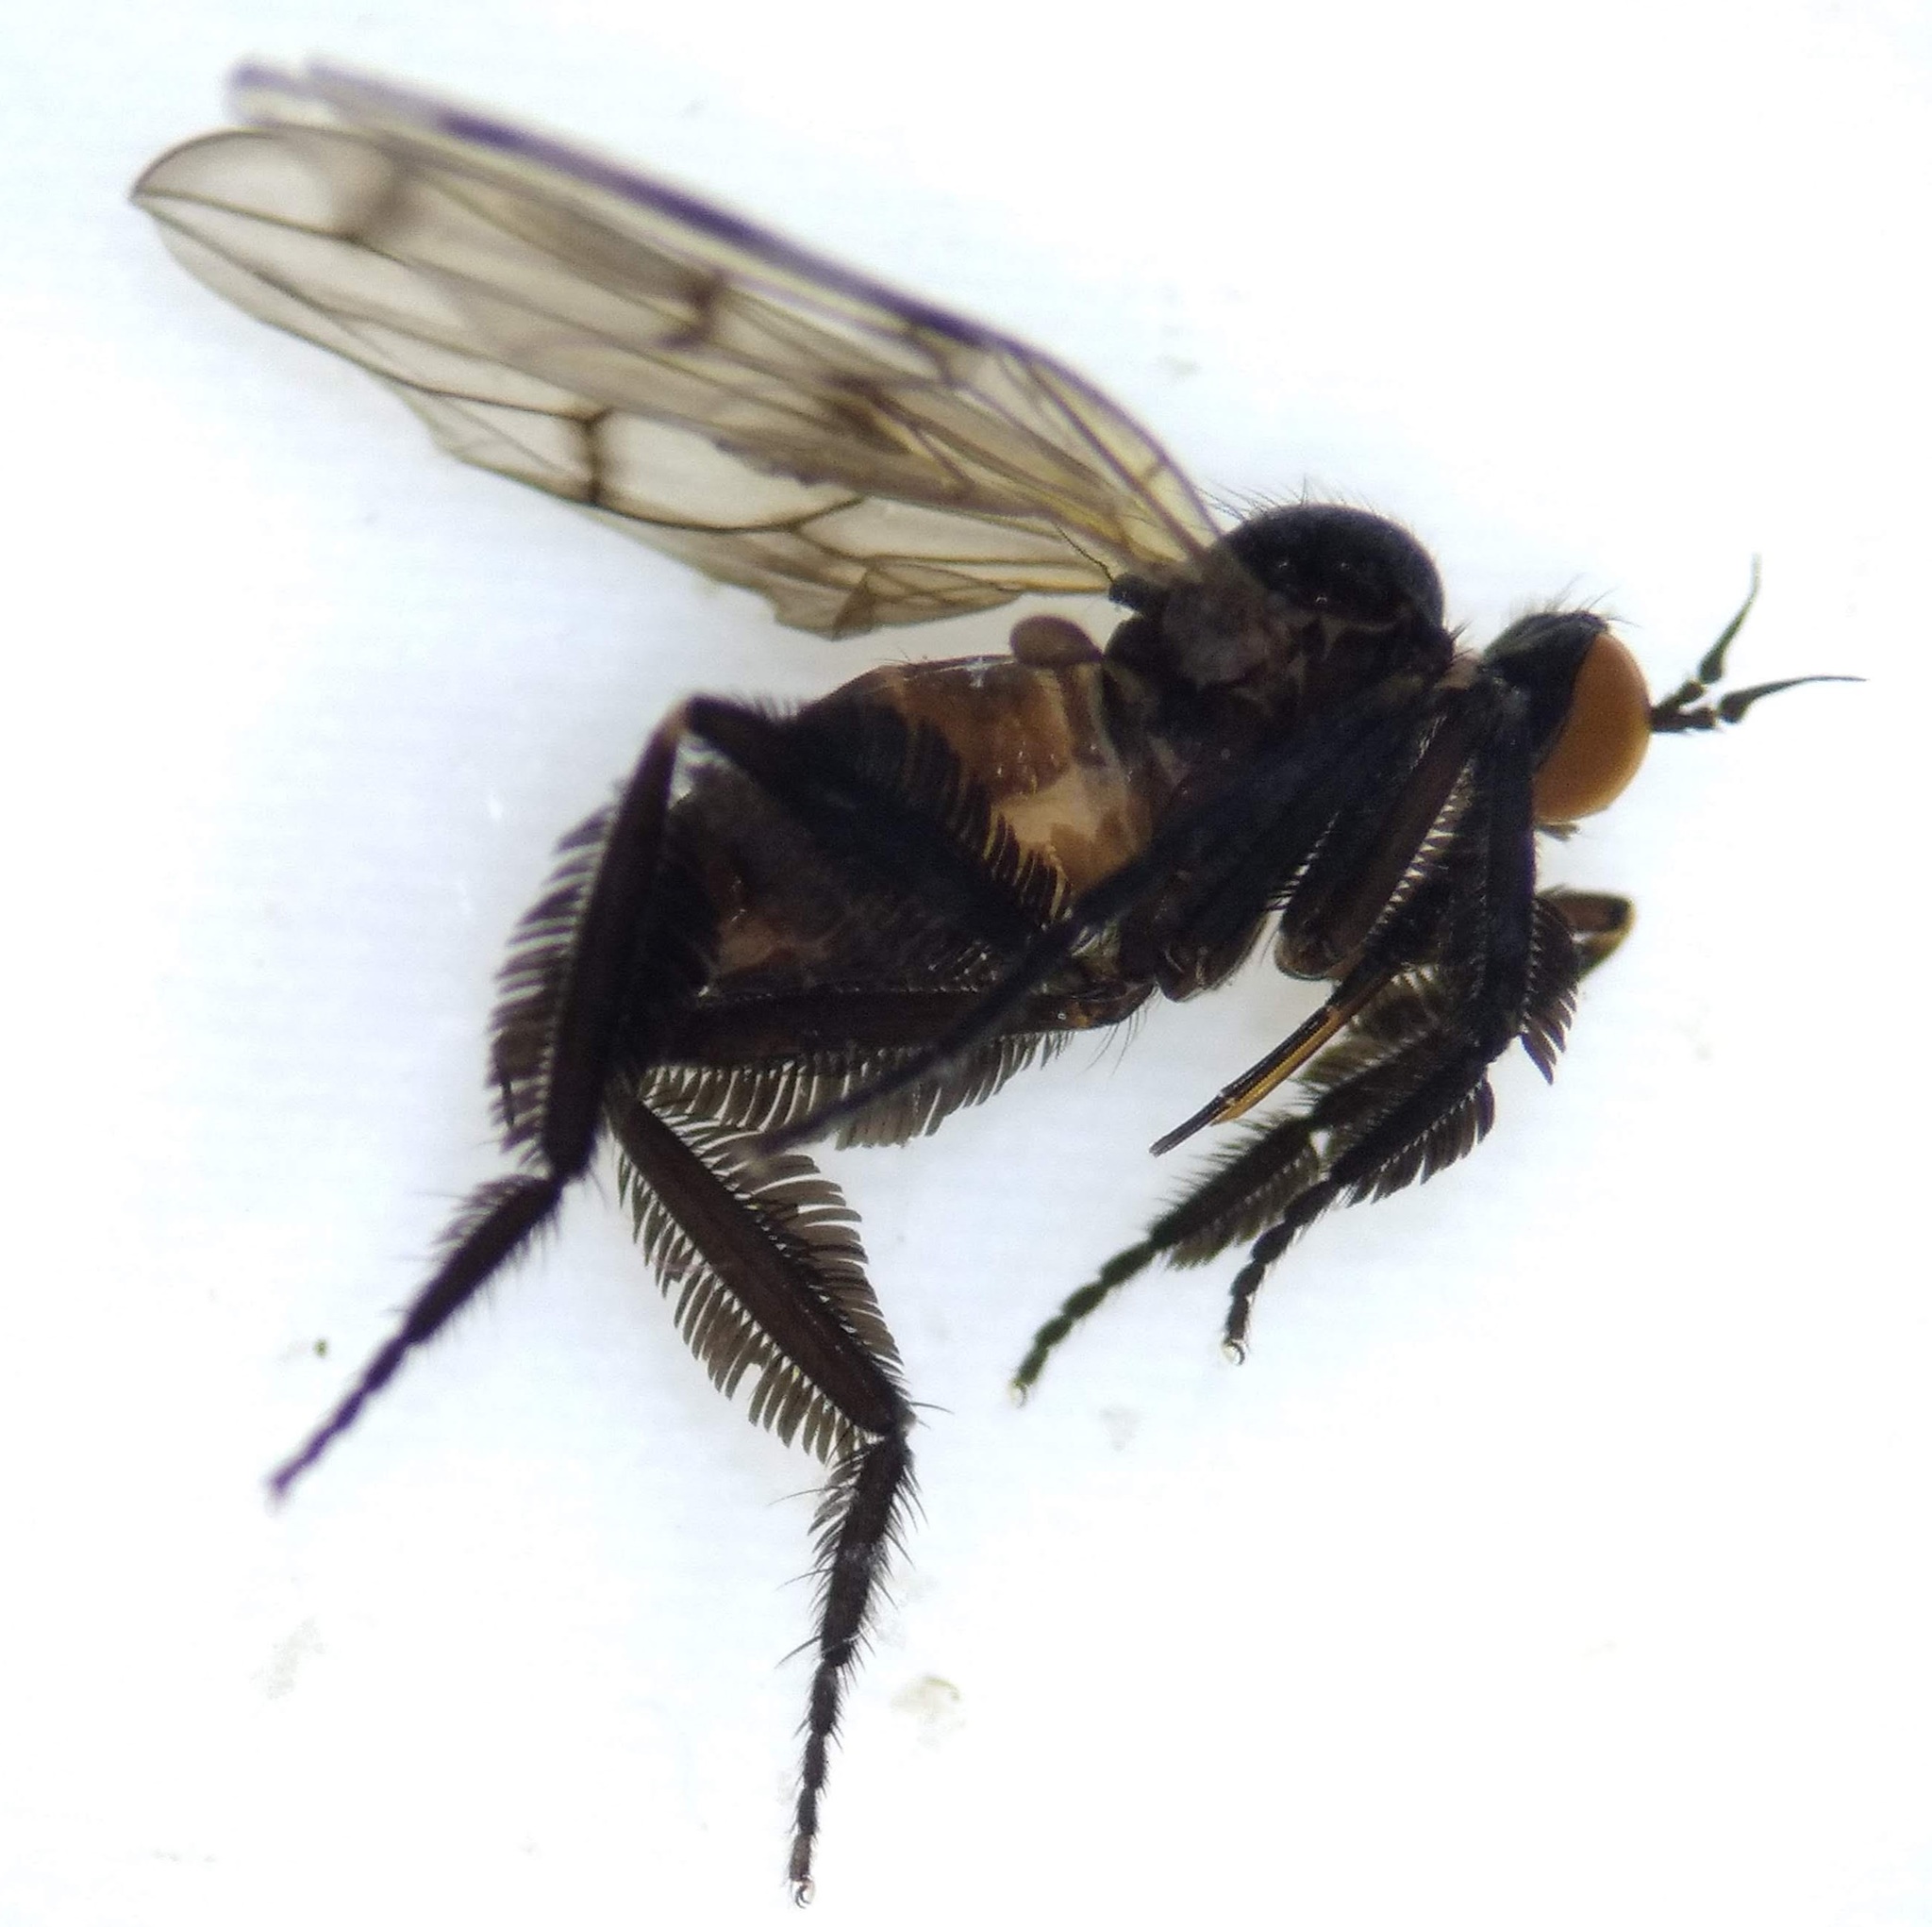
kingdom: Animalia
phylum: Arthropoda
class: Insecta
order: Diptera
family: Empididae
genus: Empis
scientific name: Empis clausa
